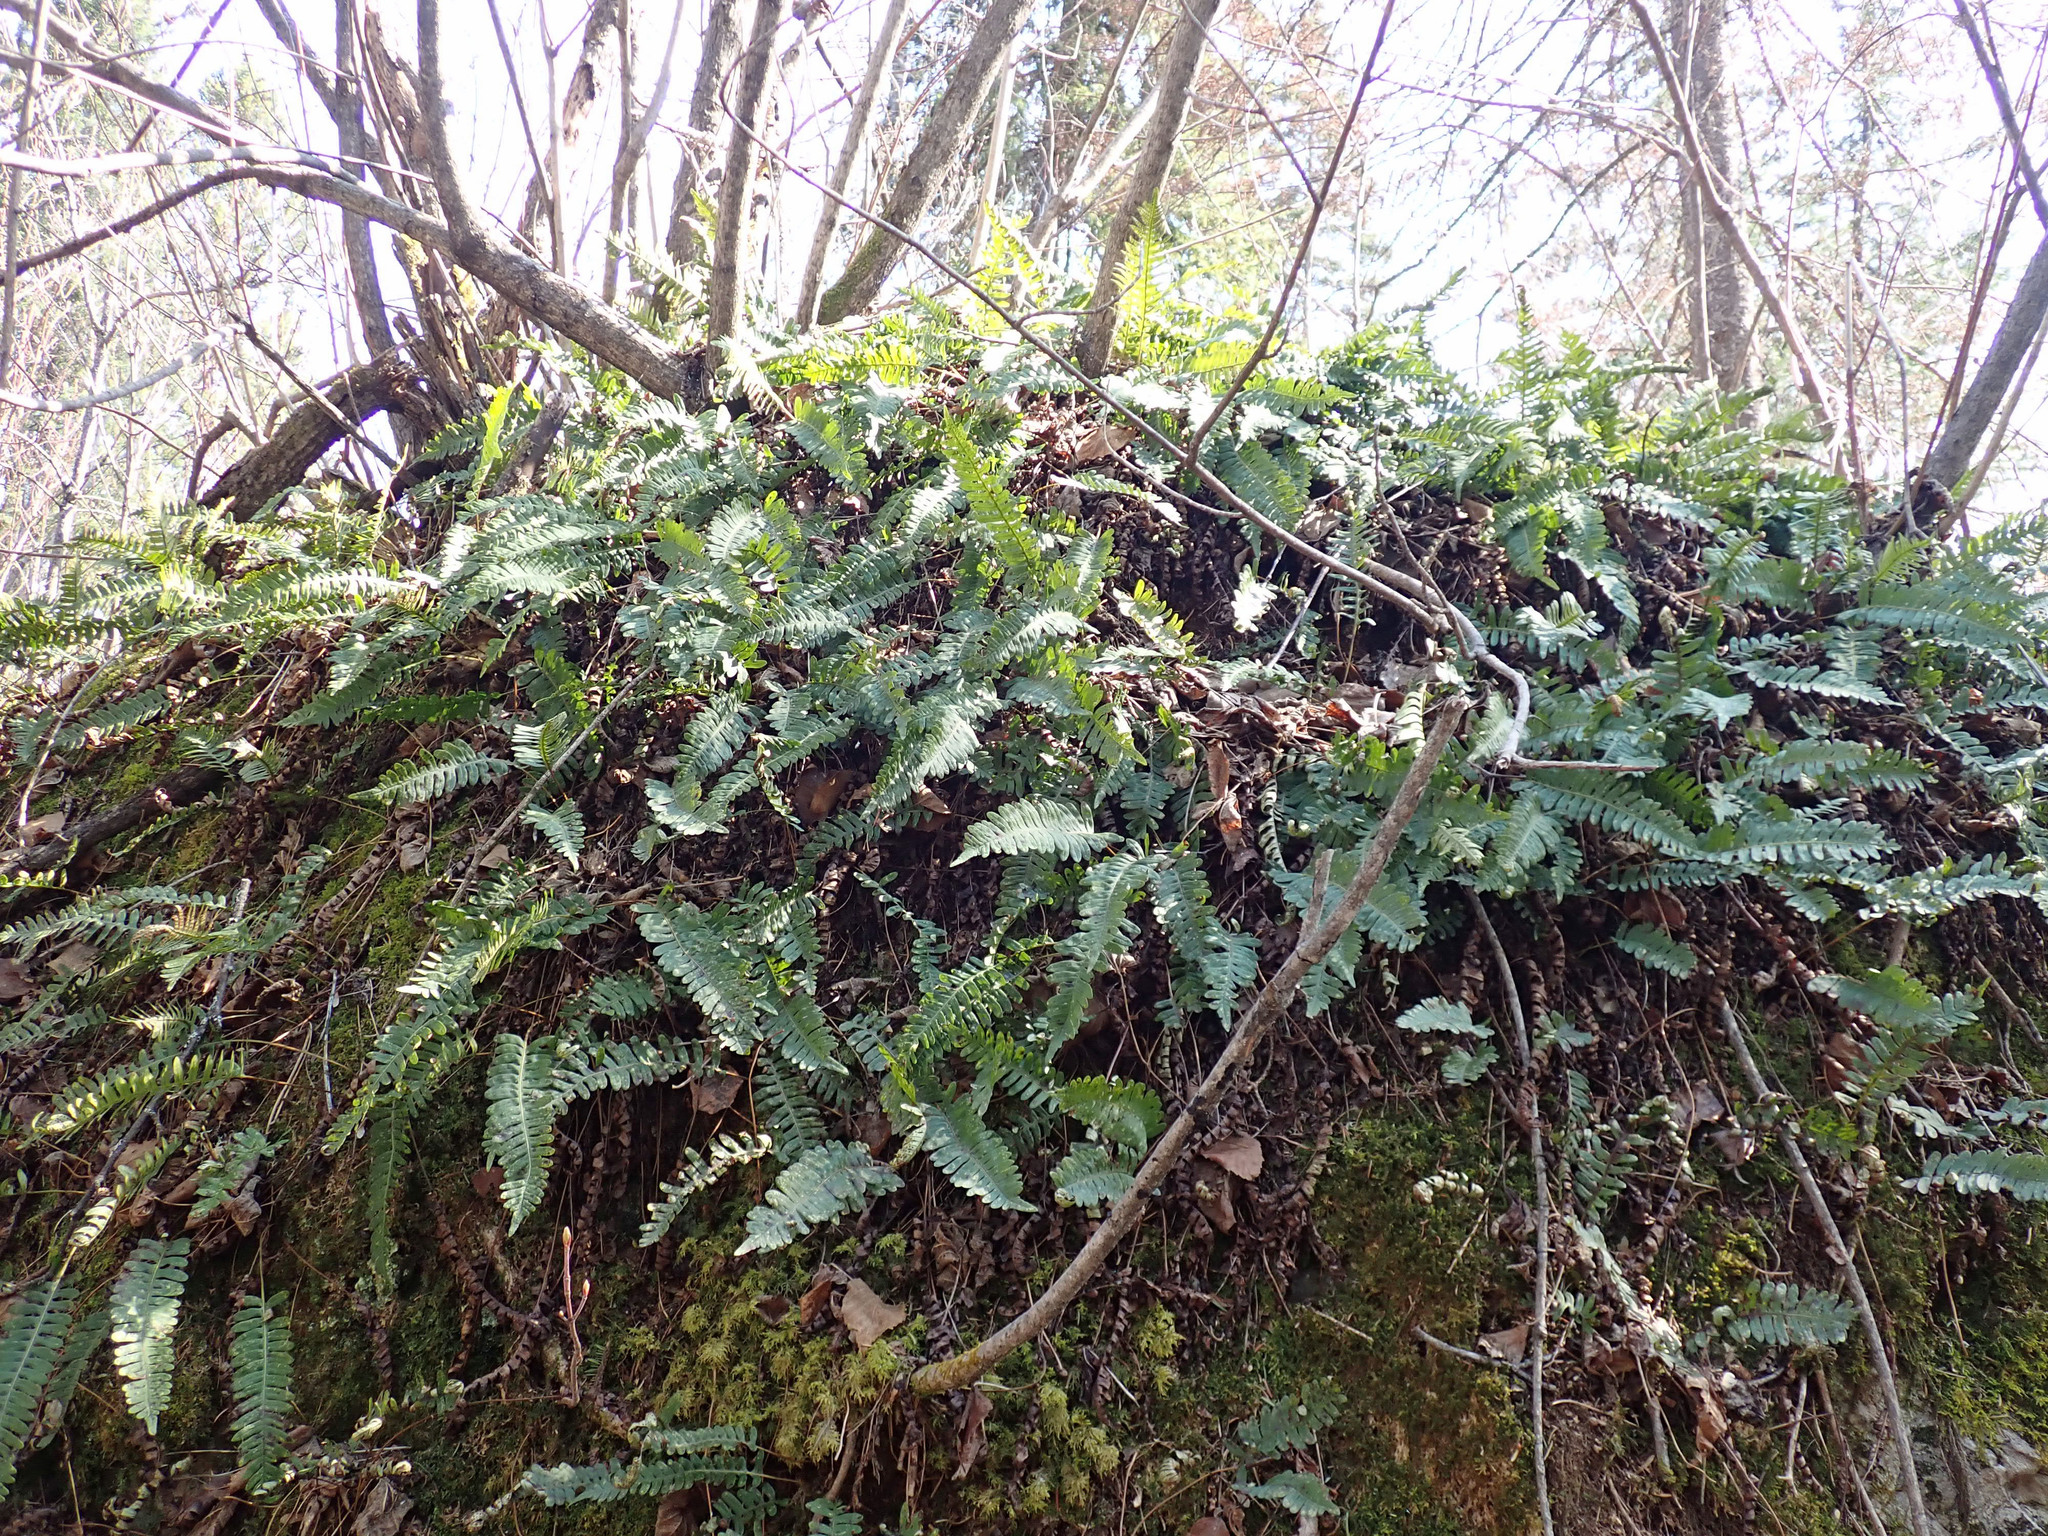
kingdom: Plantae
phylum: Tracheophyta
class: Polypodiopsida
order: Polypodiales
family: Polypodiaceae
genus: Polypodium
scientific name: Polypodium virginianum
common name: American wall fern
